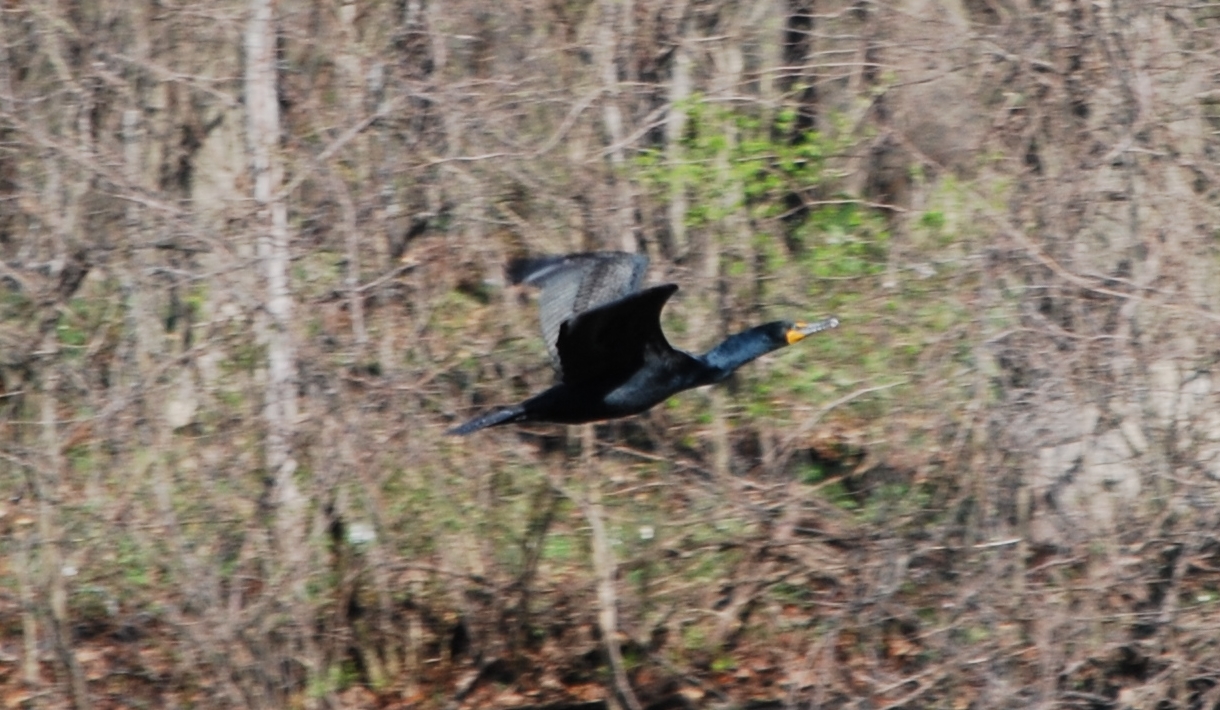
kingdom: Animalia
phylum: Chordata
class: Aves
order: Suliformes
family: Phalacrocoracidae
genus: Phalacrocorax
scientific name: Phalacrocorax auritus
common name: Double-crested cormorant
